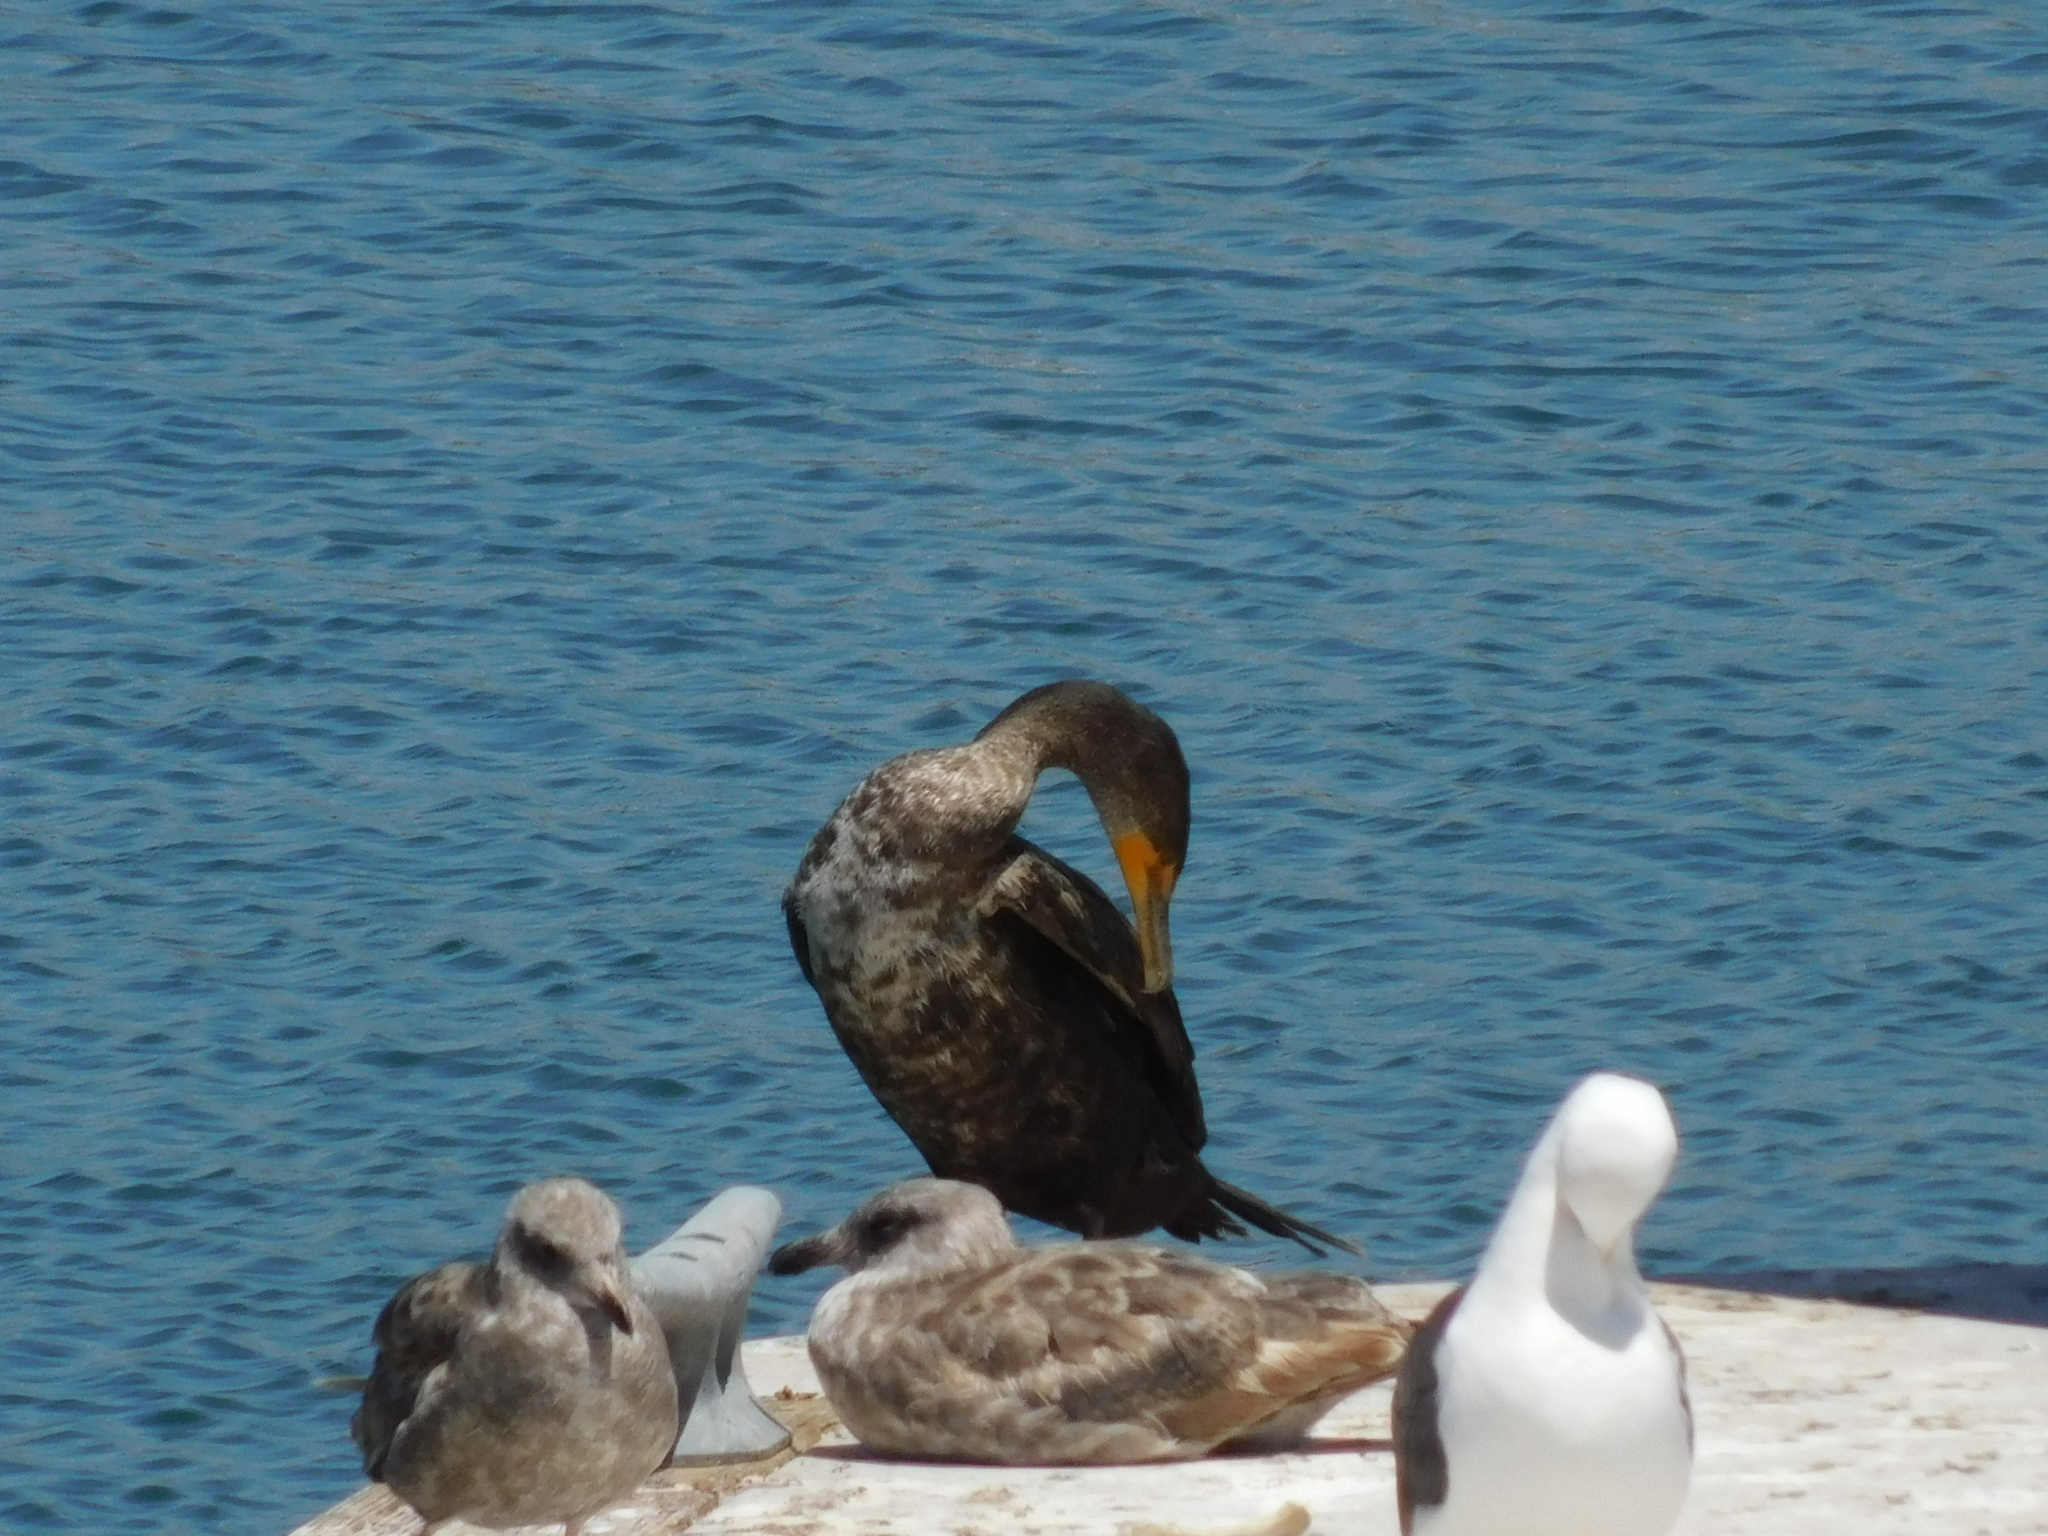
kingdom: Animalia
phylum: Chordata
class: Aves
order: Suliformes
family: Phalacrocoracidae
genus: Phalacrocorax
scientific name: Phalacrocorax auritus
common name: Double-crested cormorant
